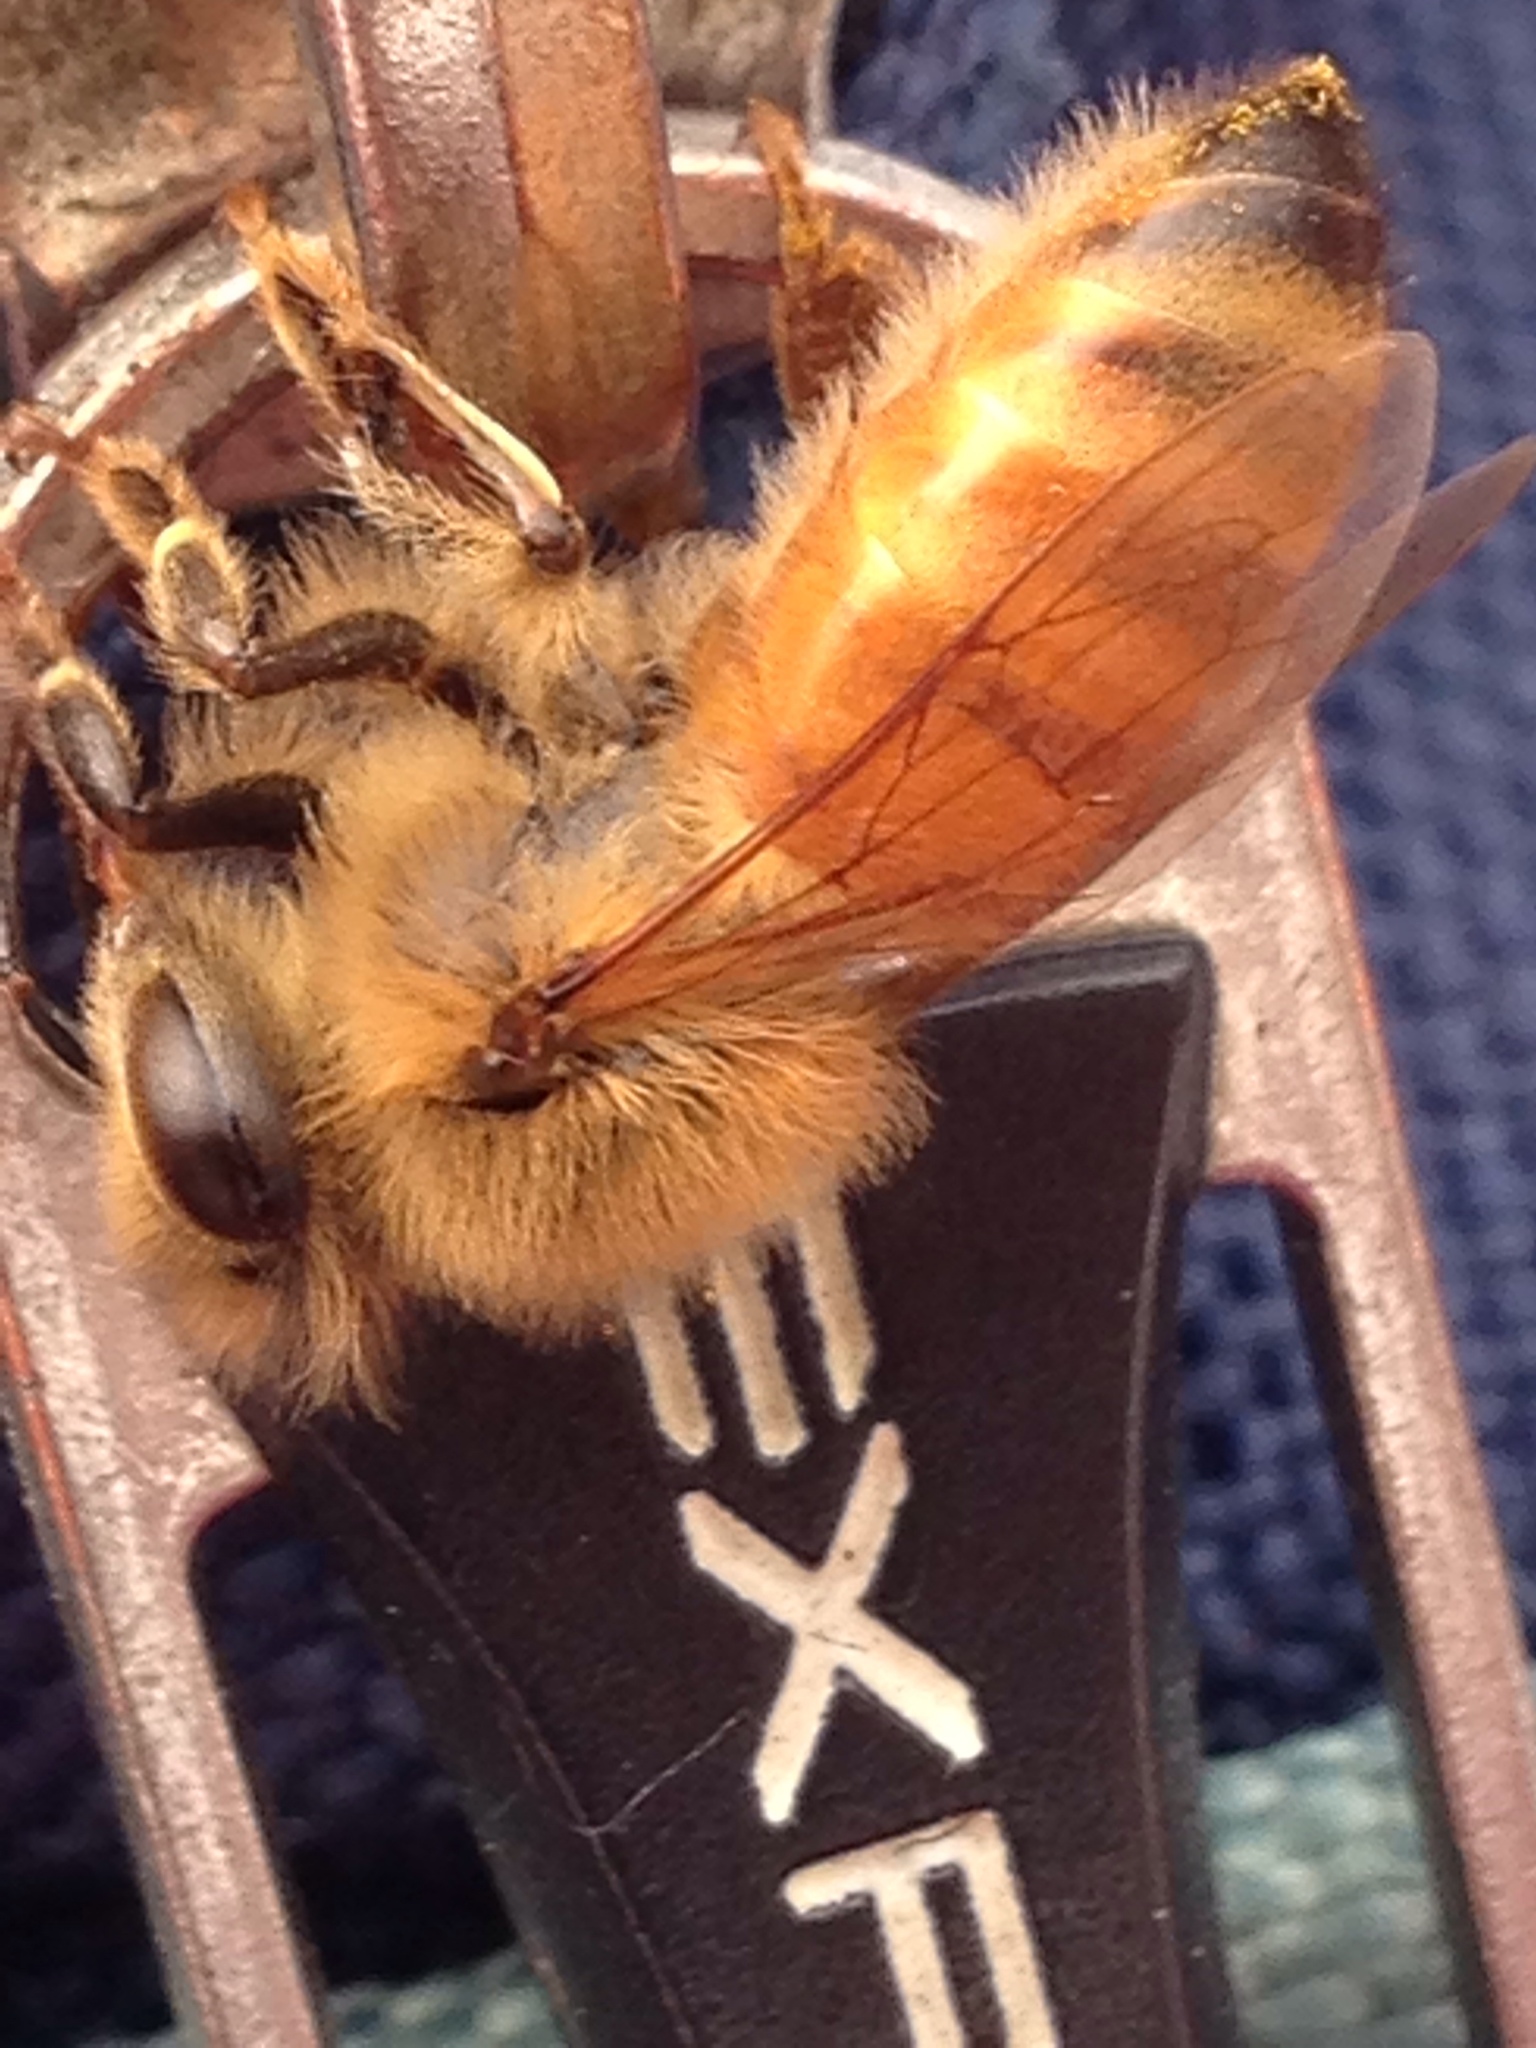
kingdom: Animalia
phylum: Arthropoda
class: Insecta
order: Hymenoptera
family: Apidae
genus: Apis
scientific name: Apis mellifera
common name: Honey bee
